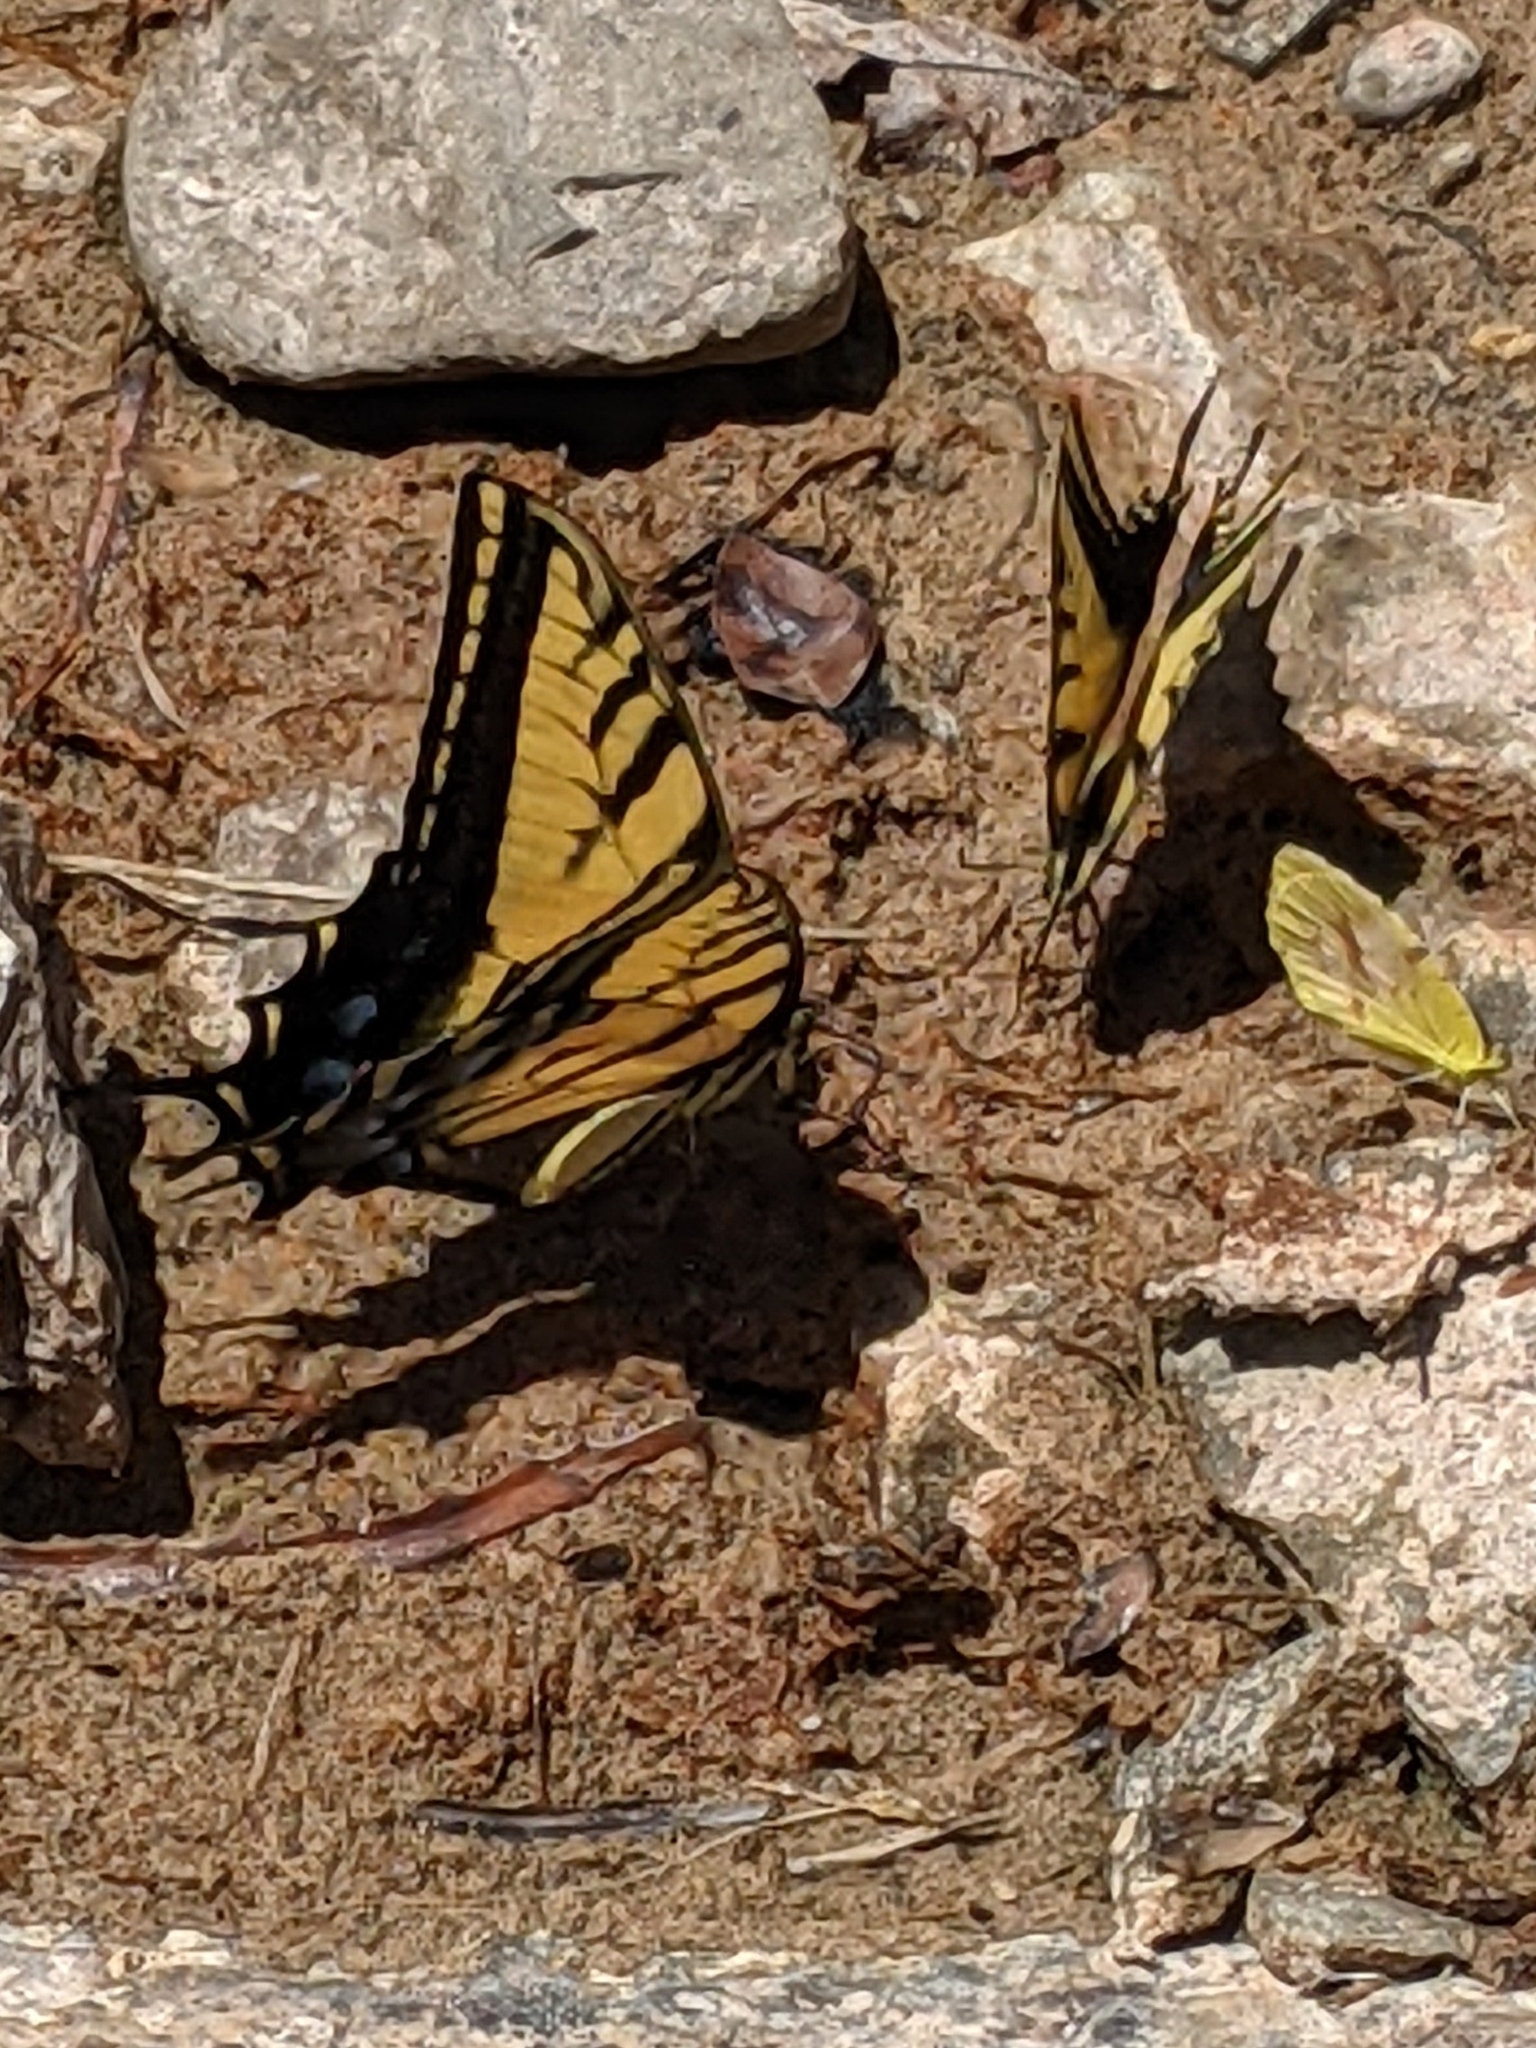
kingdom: Animalia
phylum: Arthropoda
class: Insecta
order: Lepidoptera
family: Papilionidae
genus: Papilio
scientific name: Papilio multicaudata
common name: Two-tailed tiger swallowtail
